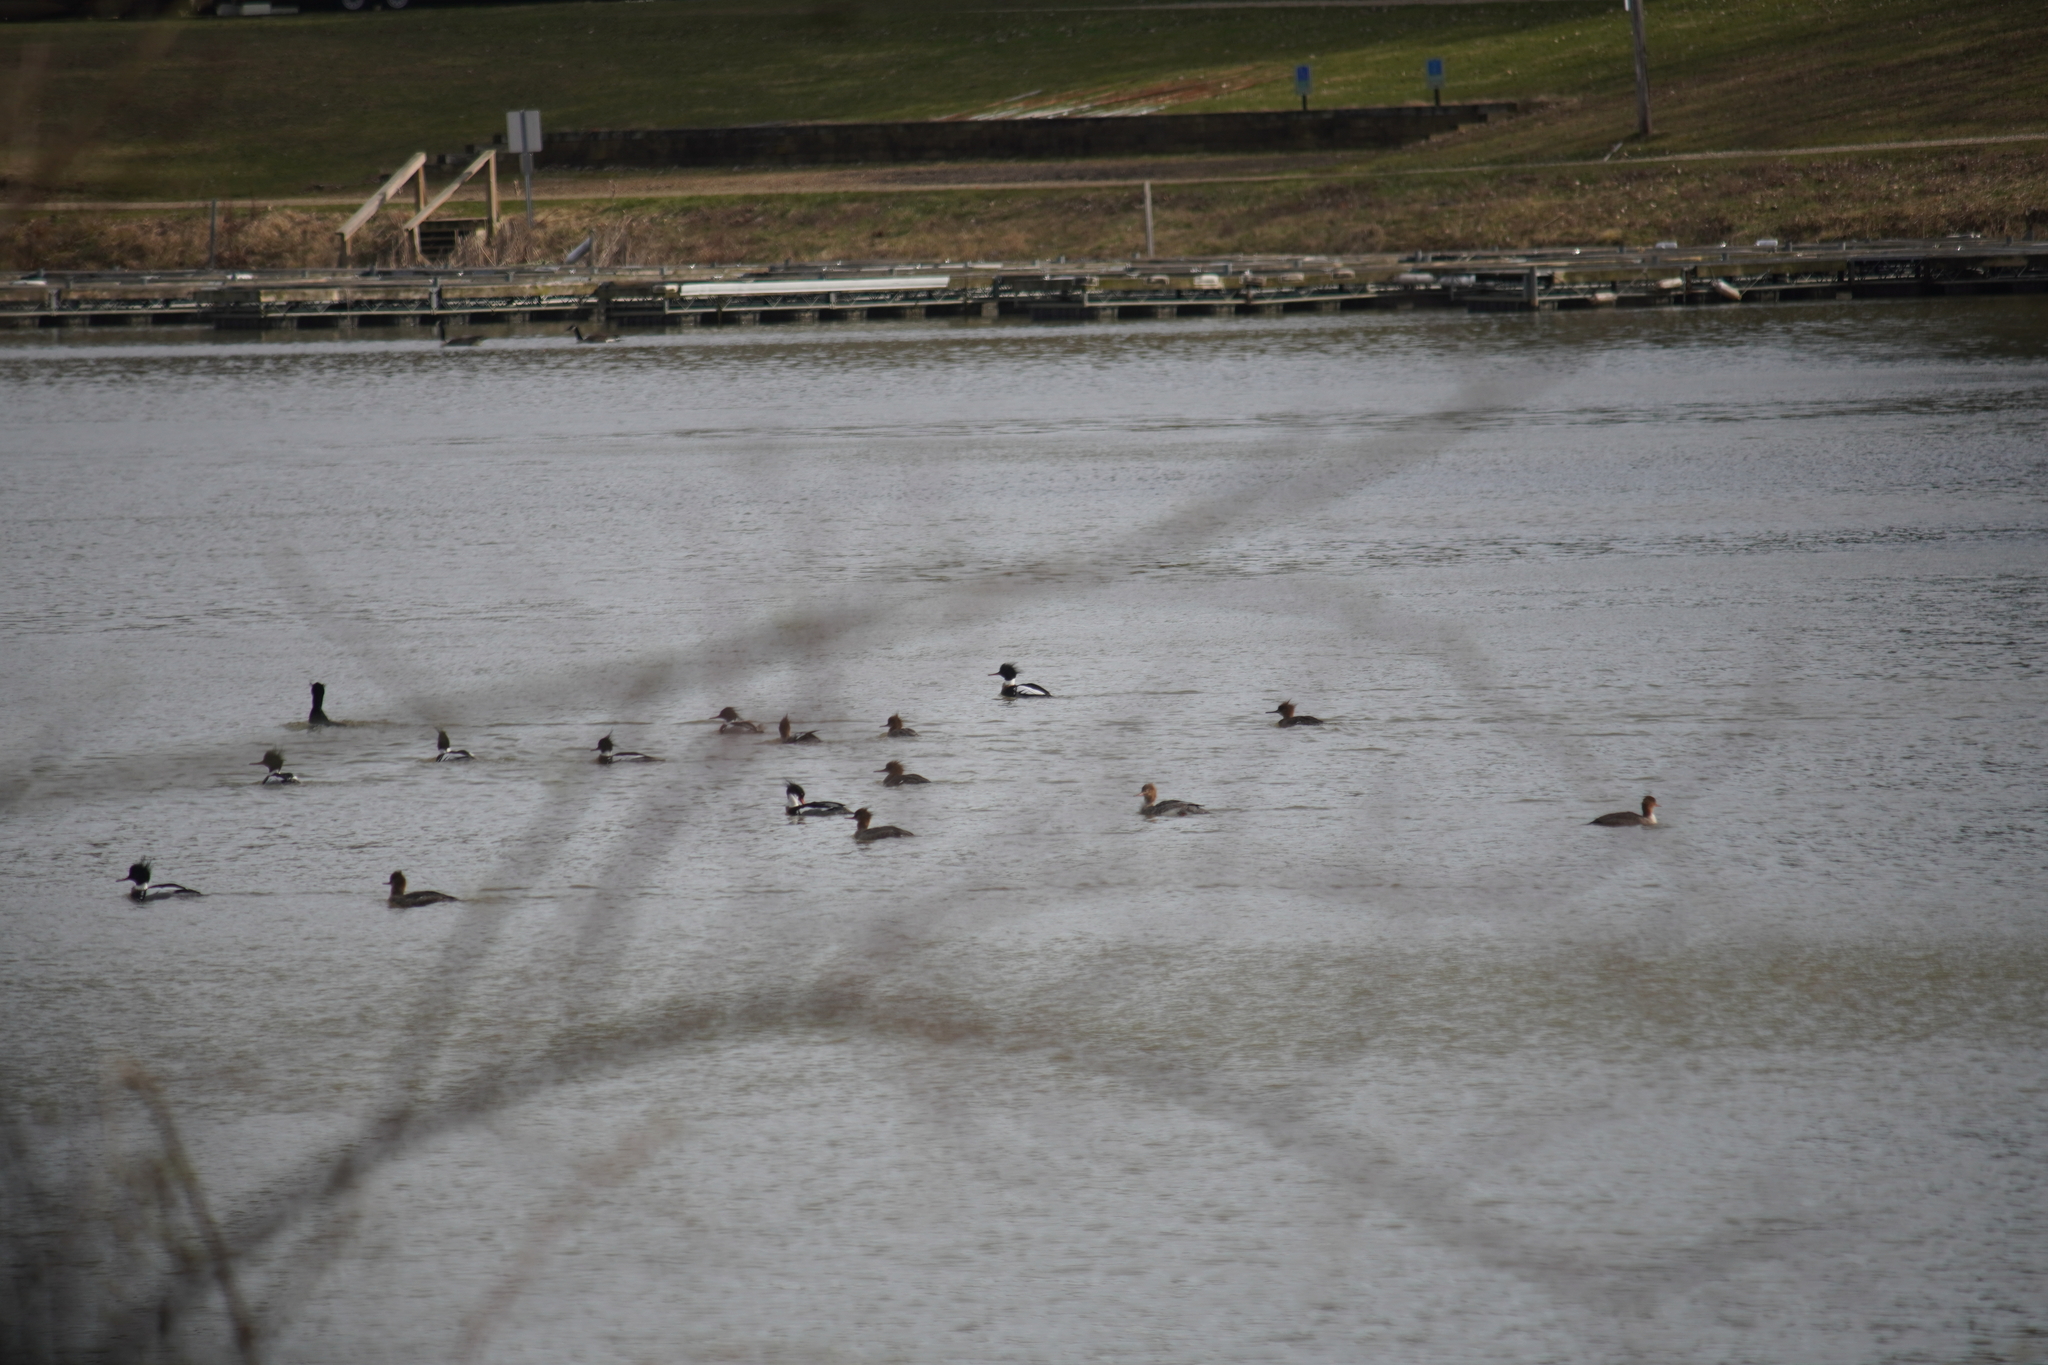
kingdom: Animalia
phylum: Chordata
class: Aves
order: Anseriformes
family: Anatidae
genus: Mergus
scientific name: Mergus serrator
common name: Red-breasted merganser
